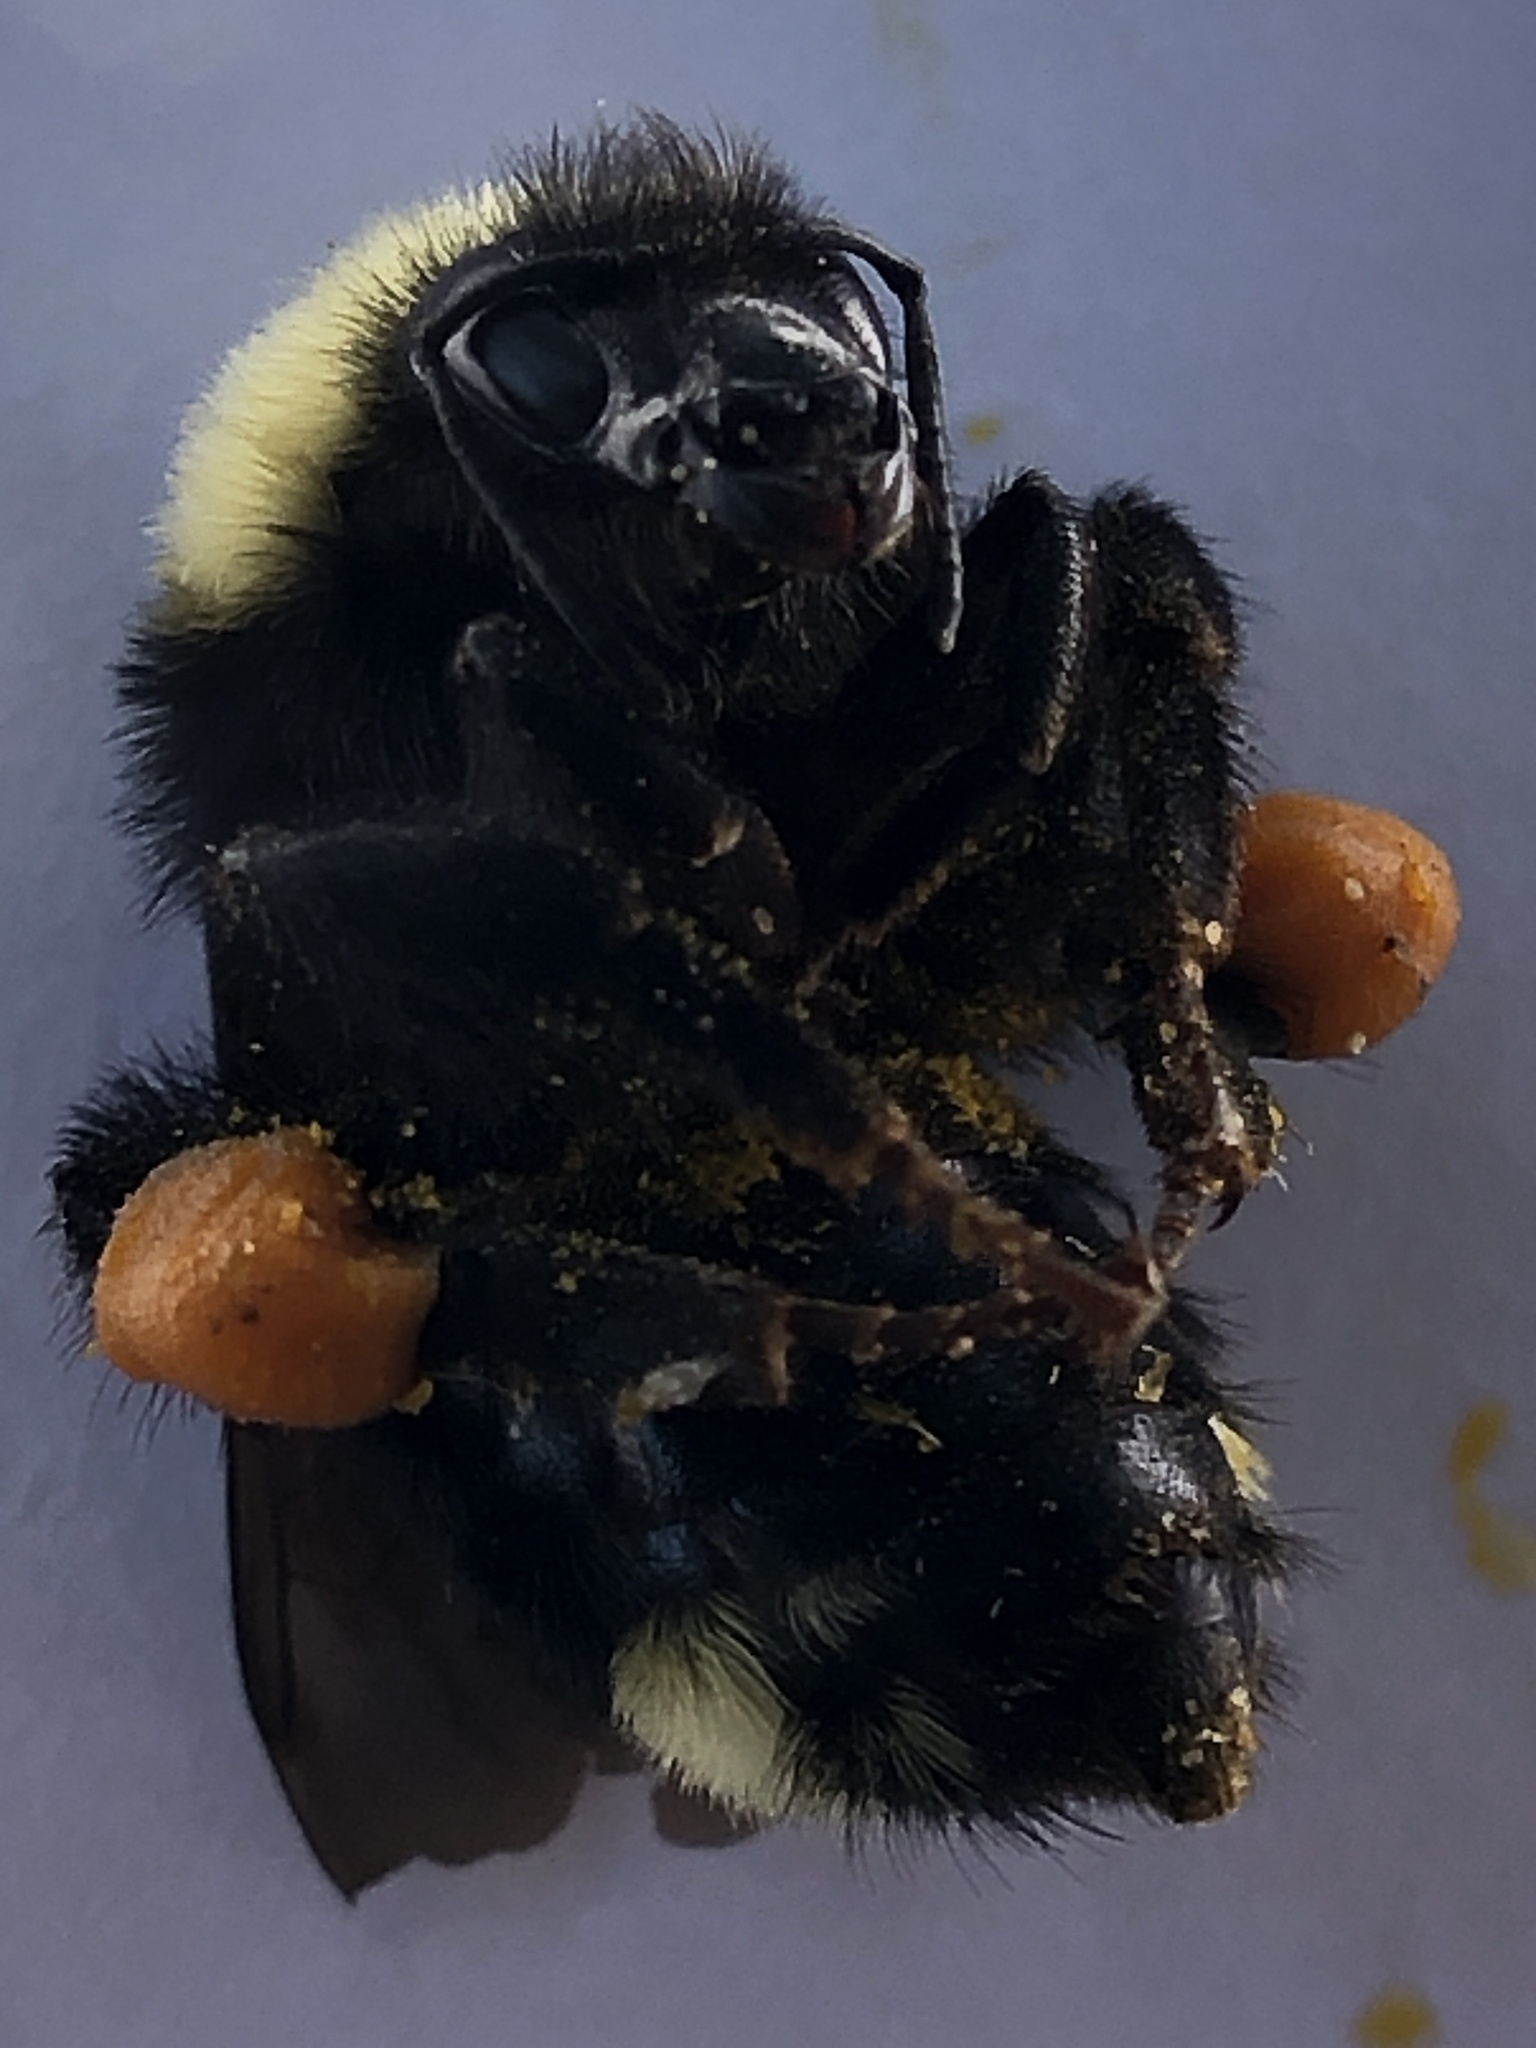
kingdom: Animalia
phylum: Arthropoda
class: Insecta
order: Hymenoptera
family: Apidae
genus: Bombus
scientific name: Bombus californicus
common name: California bumble bee
